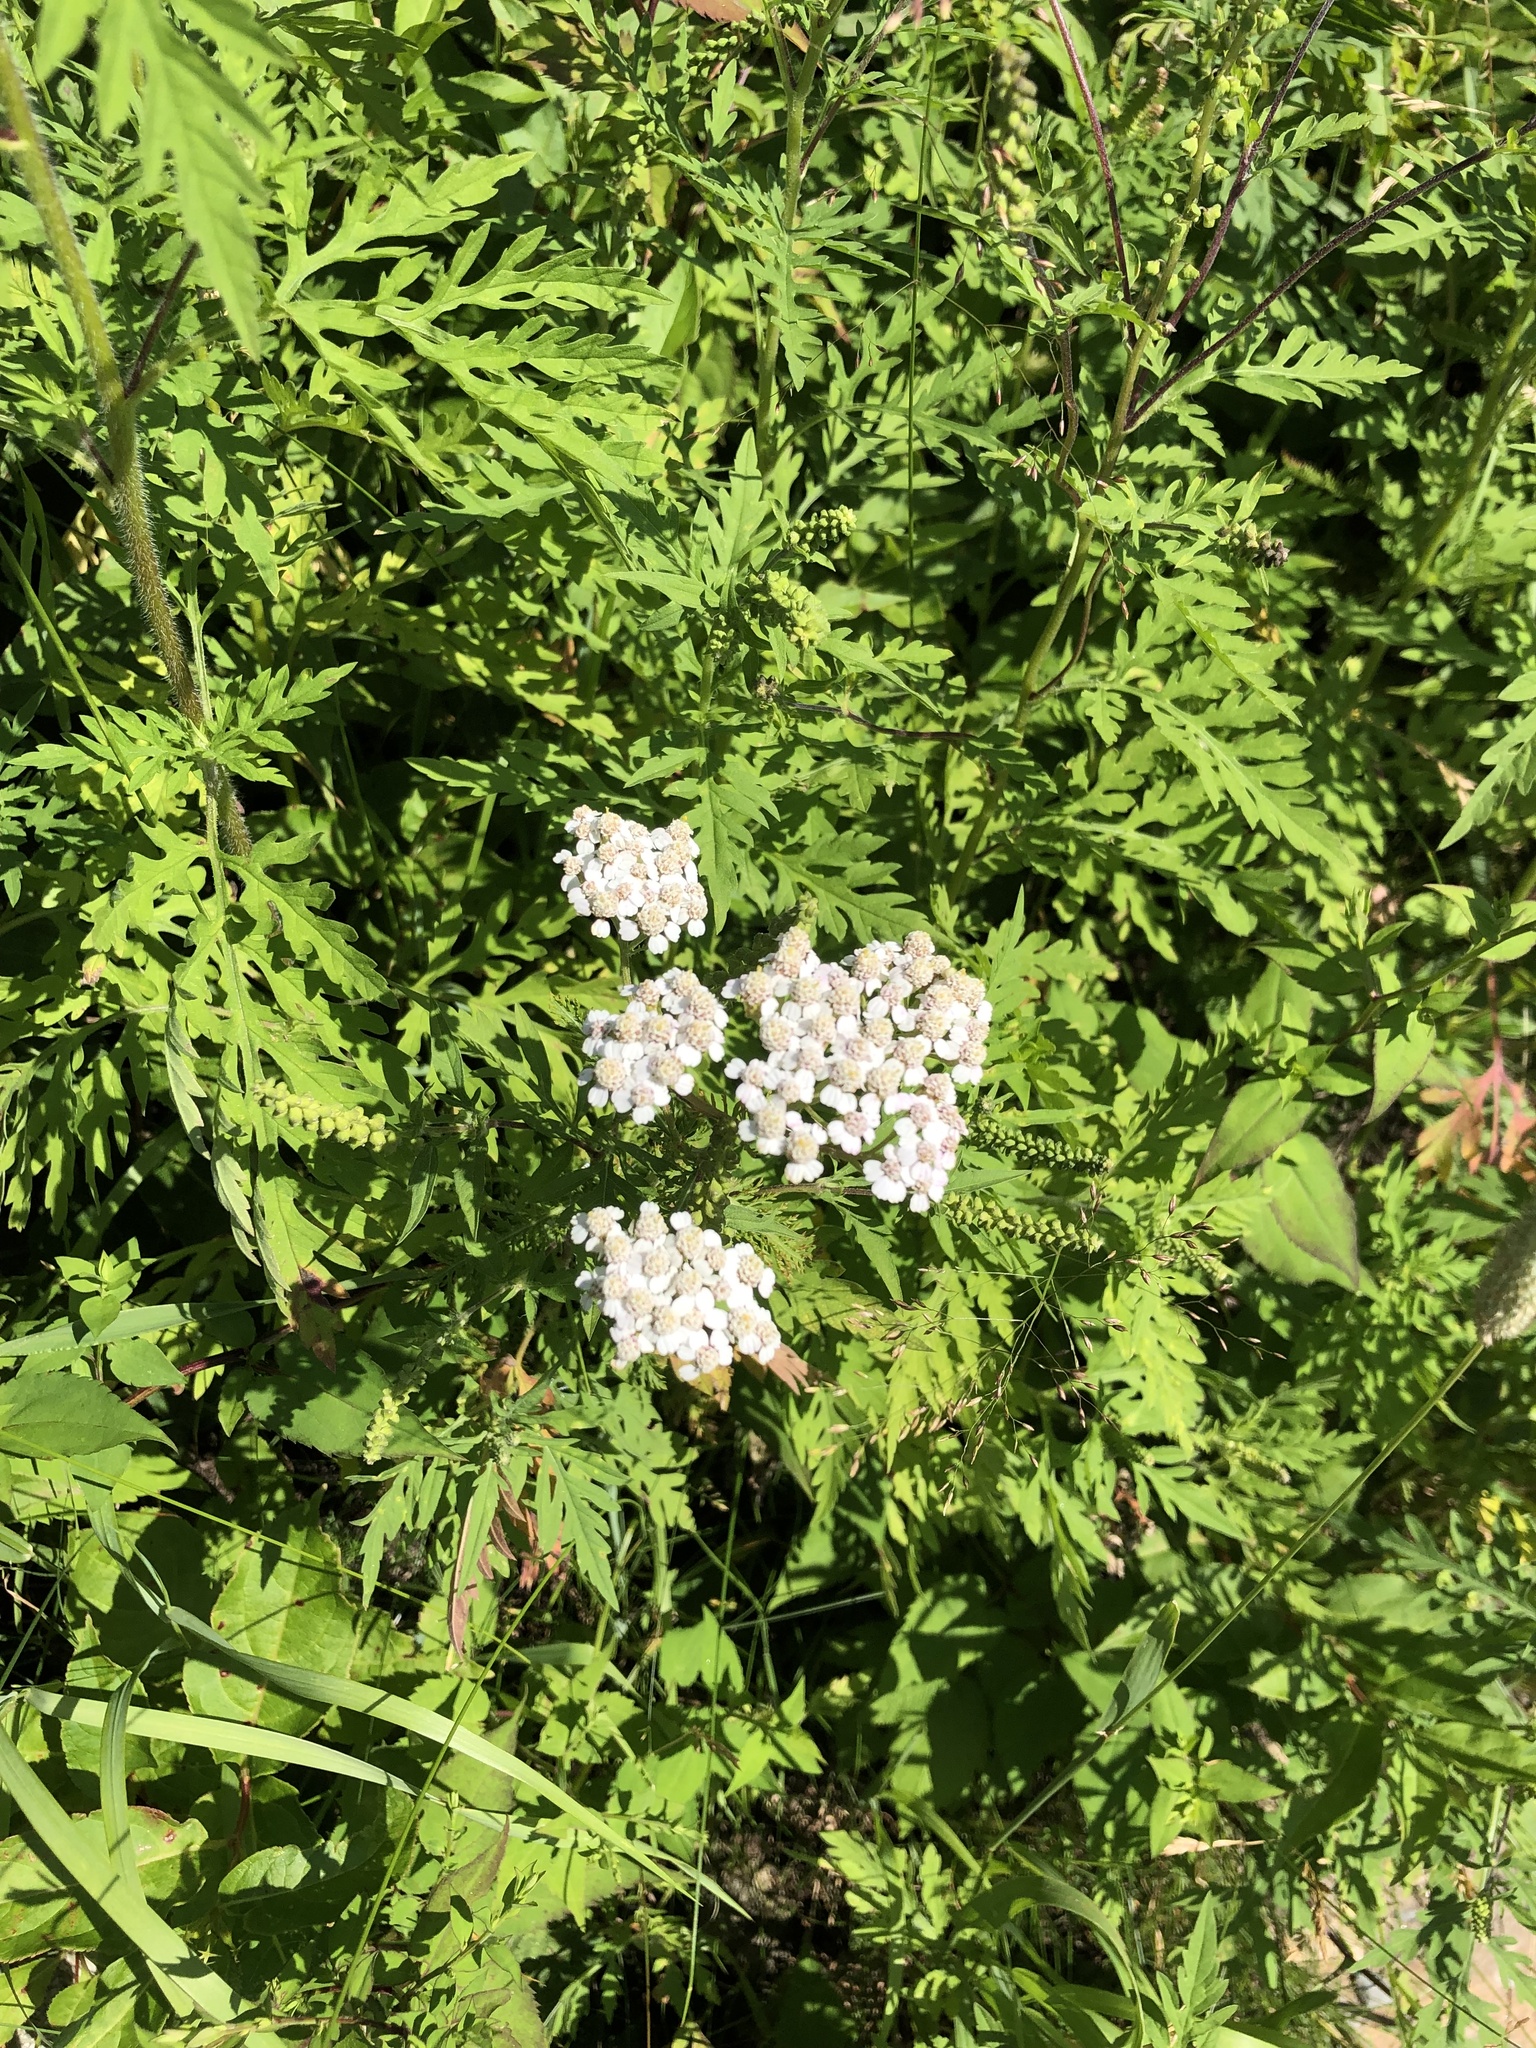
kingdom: Plantae
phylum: Tracheophyta
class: Magnoliopsida
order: Asterales
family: Asteraceae
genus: Achillea
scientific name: Achillea millefolium
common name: Yarrow
